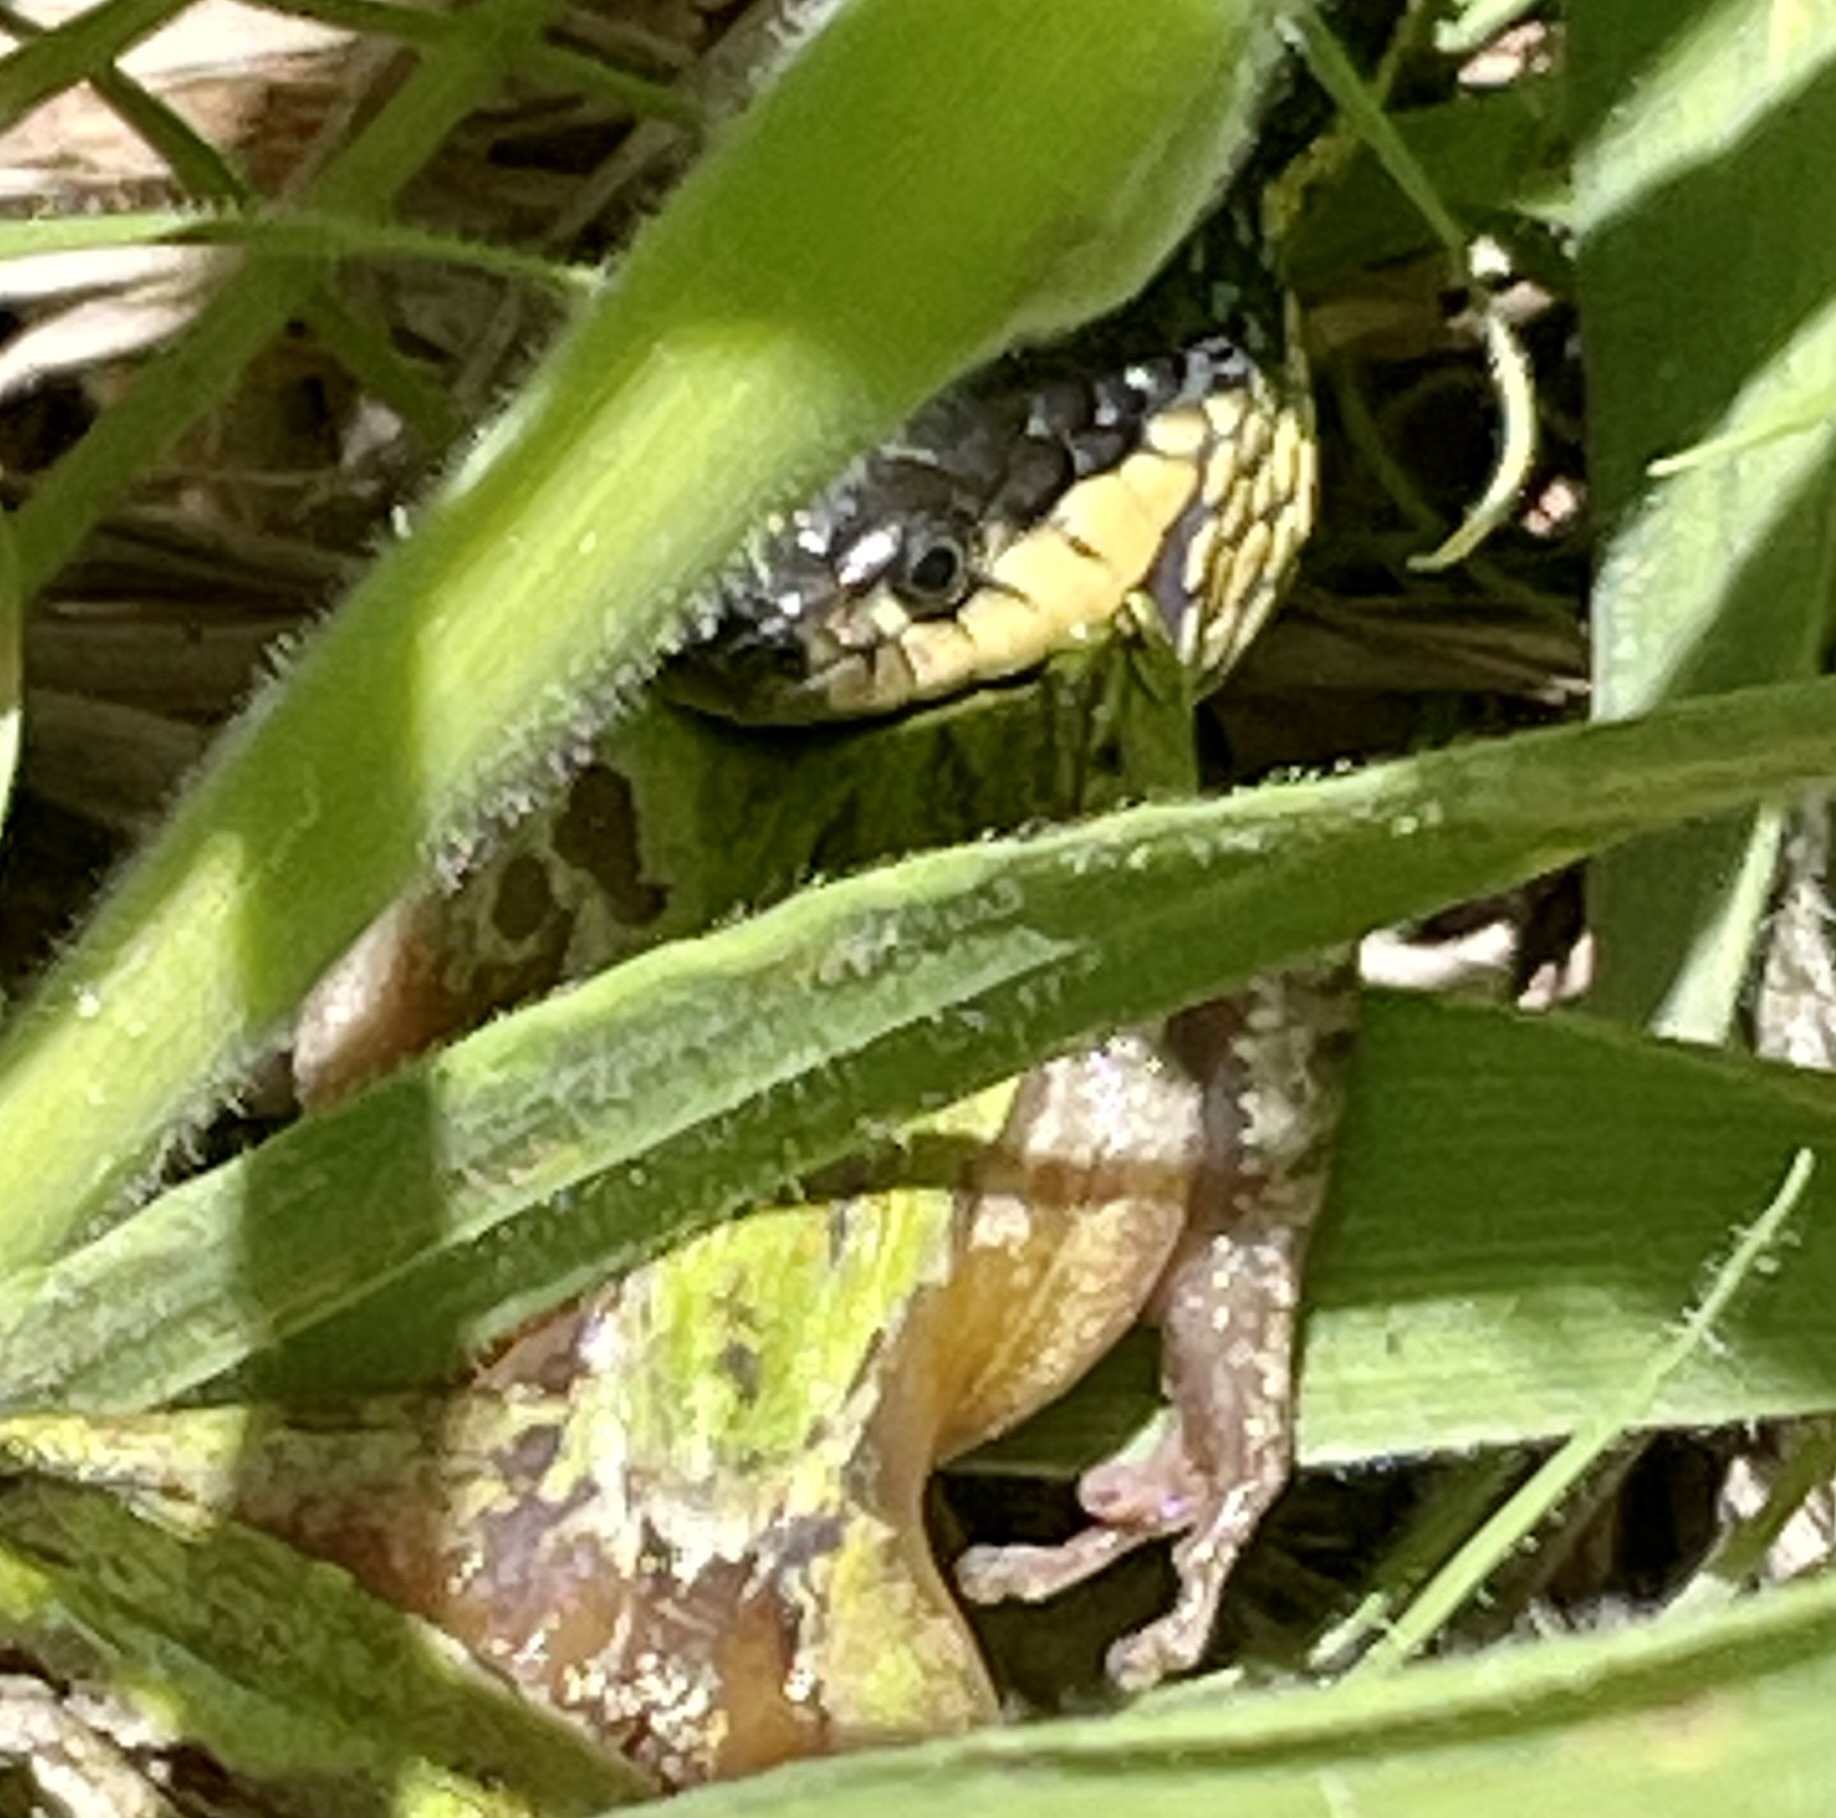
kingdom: Animalia
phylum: Chordata
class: Amphibia
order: Anura
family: Hylidae
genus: Pseudacris
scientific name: Pseudacris regilla
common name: Pacific chorus frog
